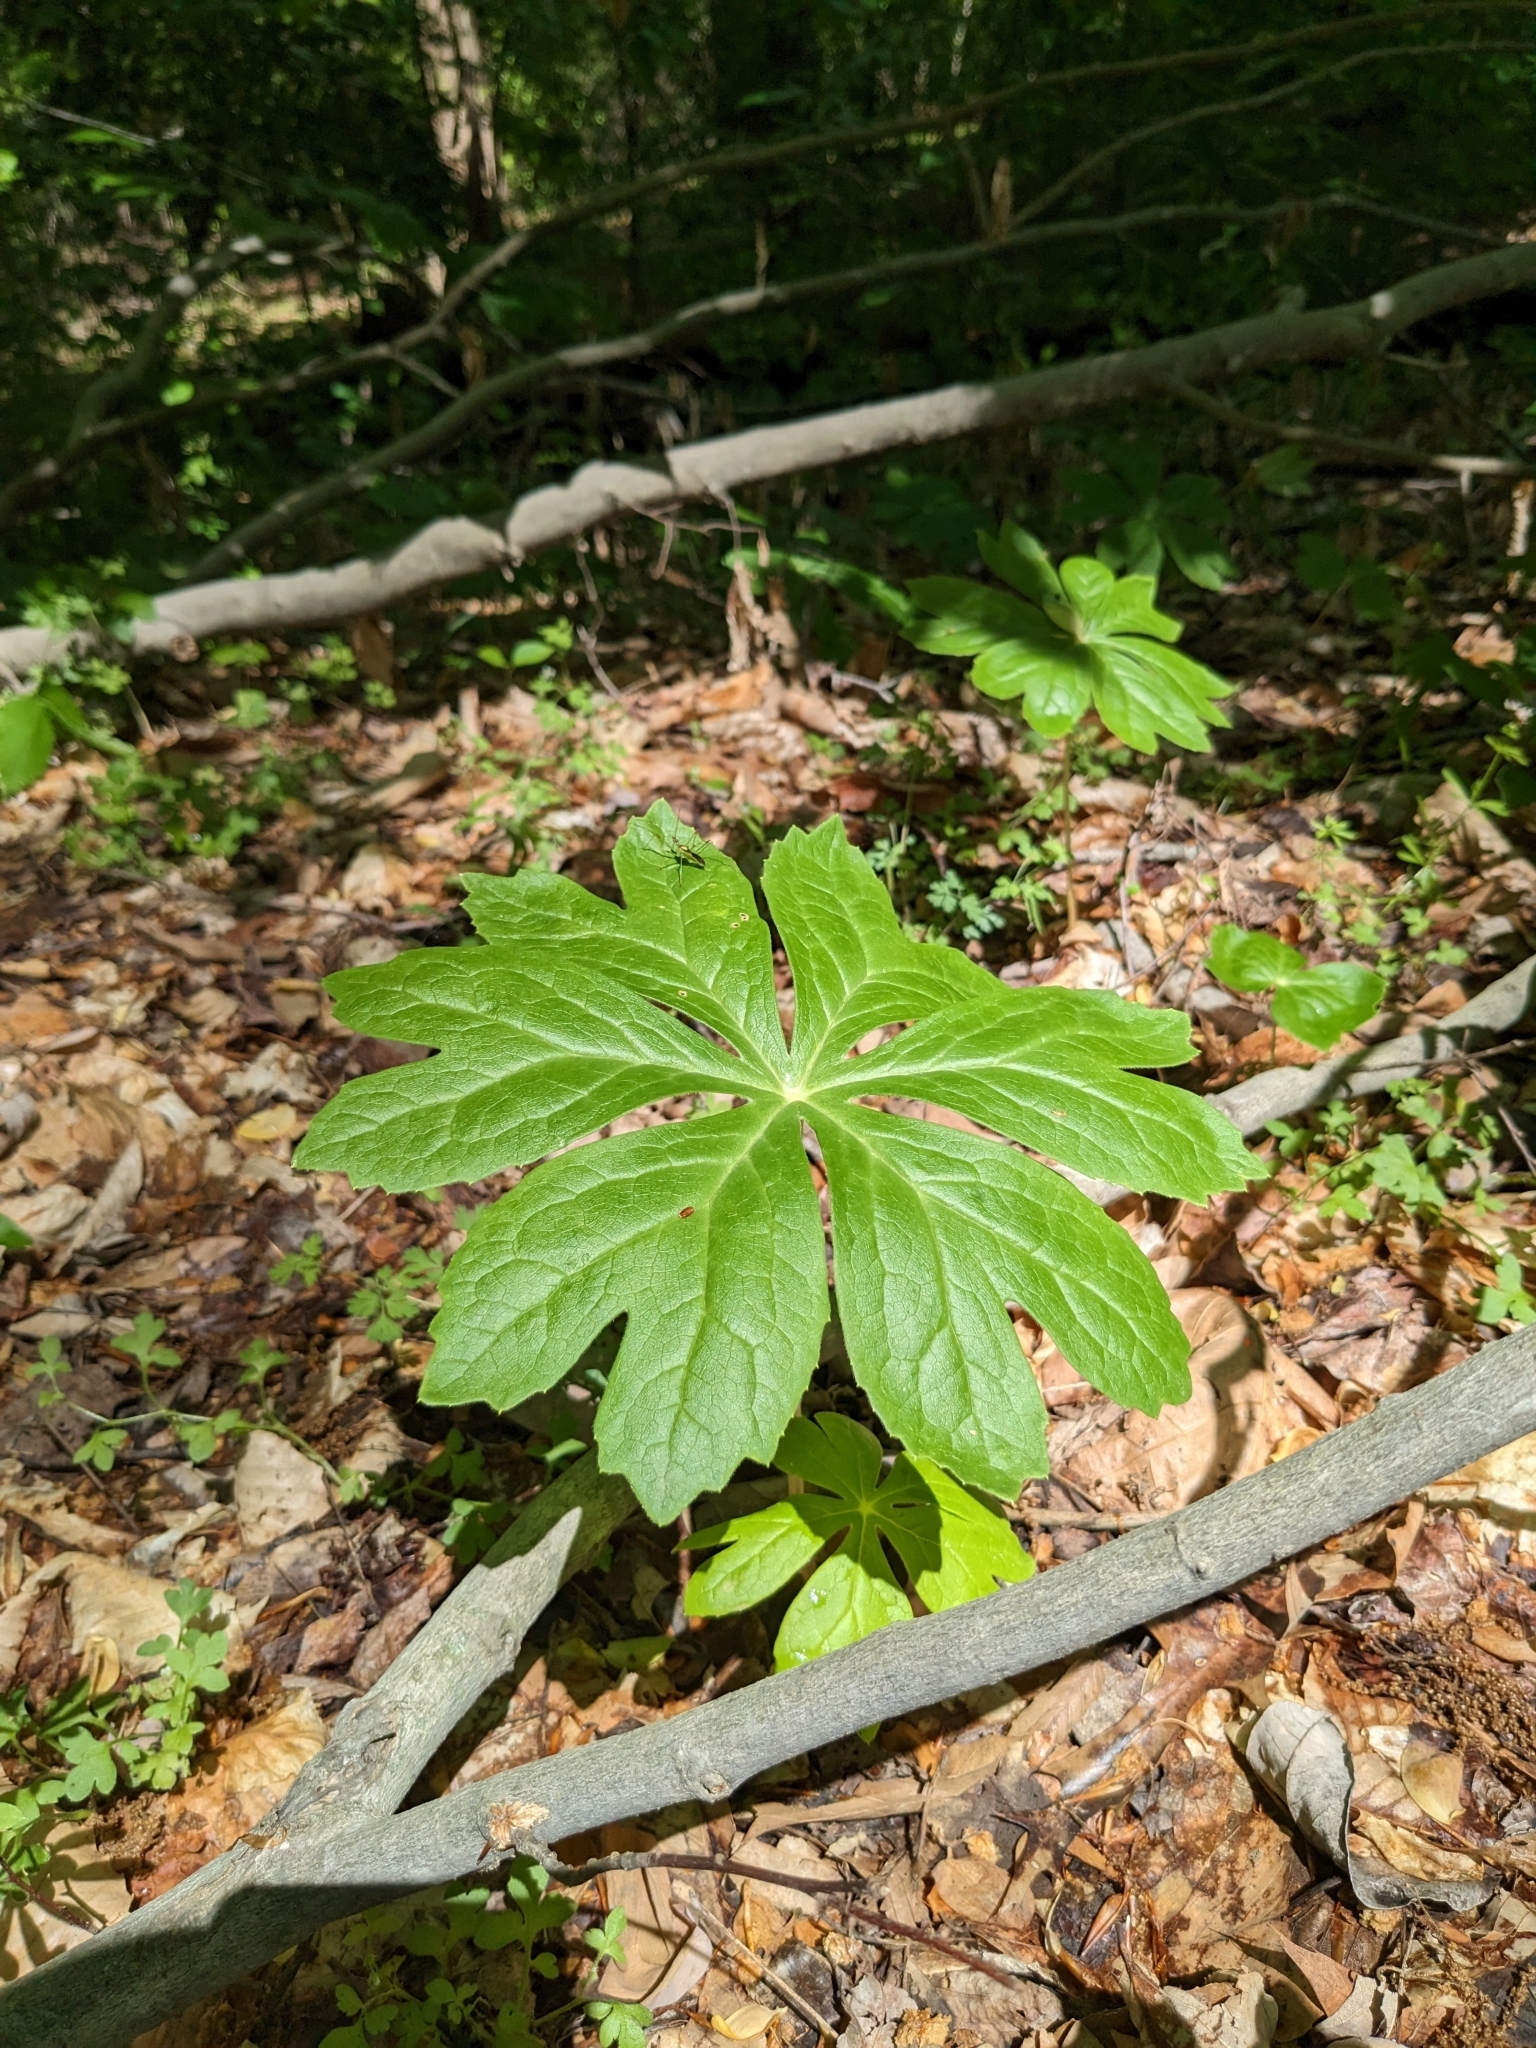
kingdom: Plantae
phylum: Tracheophyta
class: Magnoliopsida
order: Ranunculales
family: Berberidaceae
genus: Podophyllum
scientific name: Podophyllum peltatum
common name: Wild mandrake
